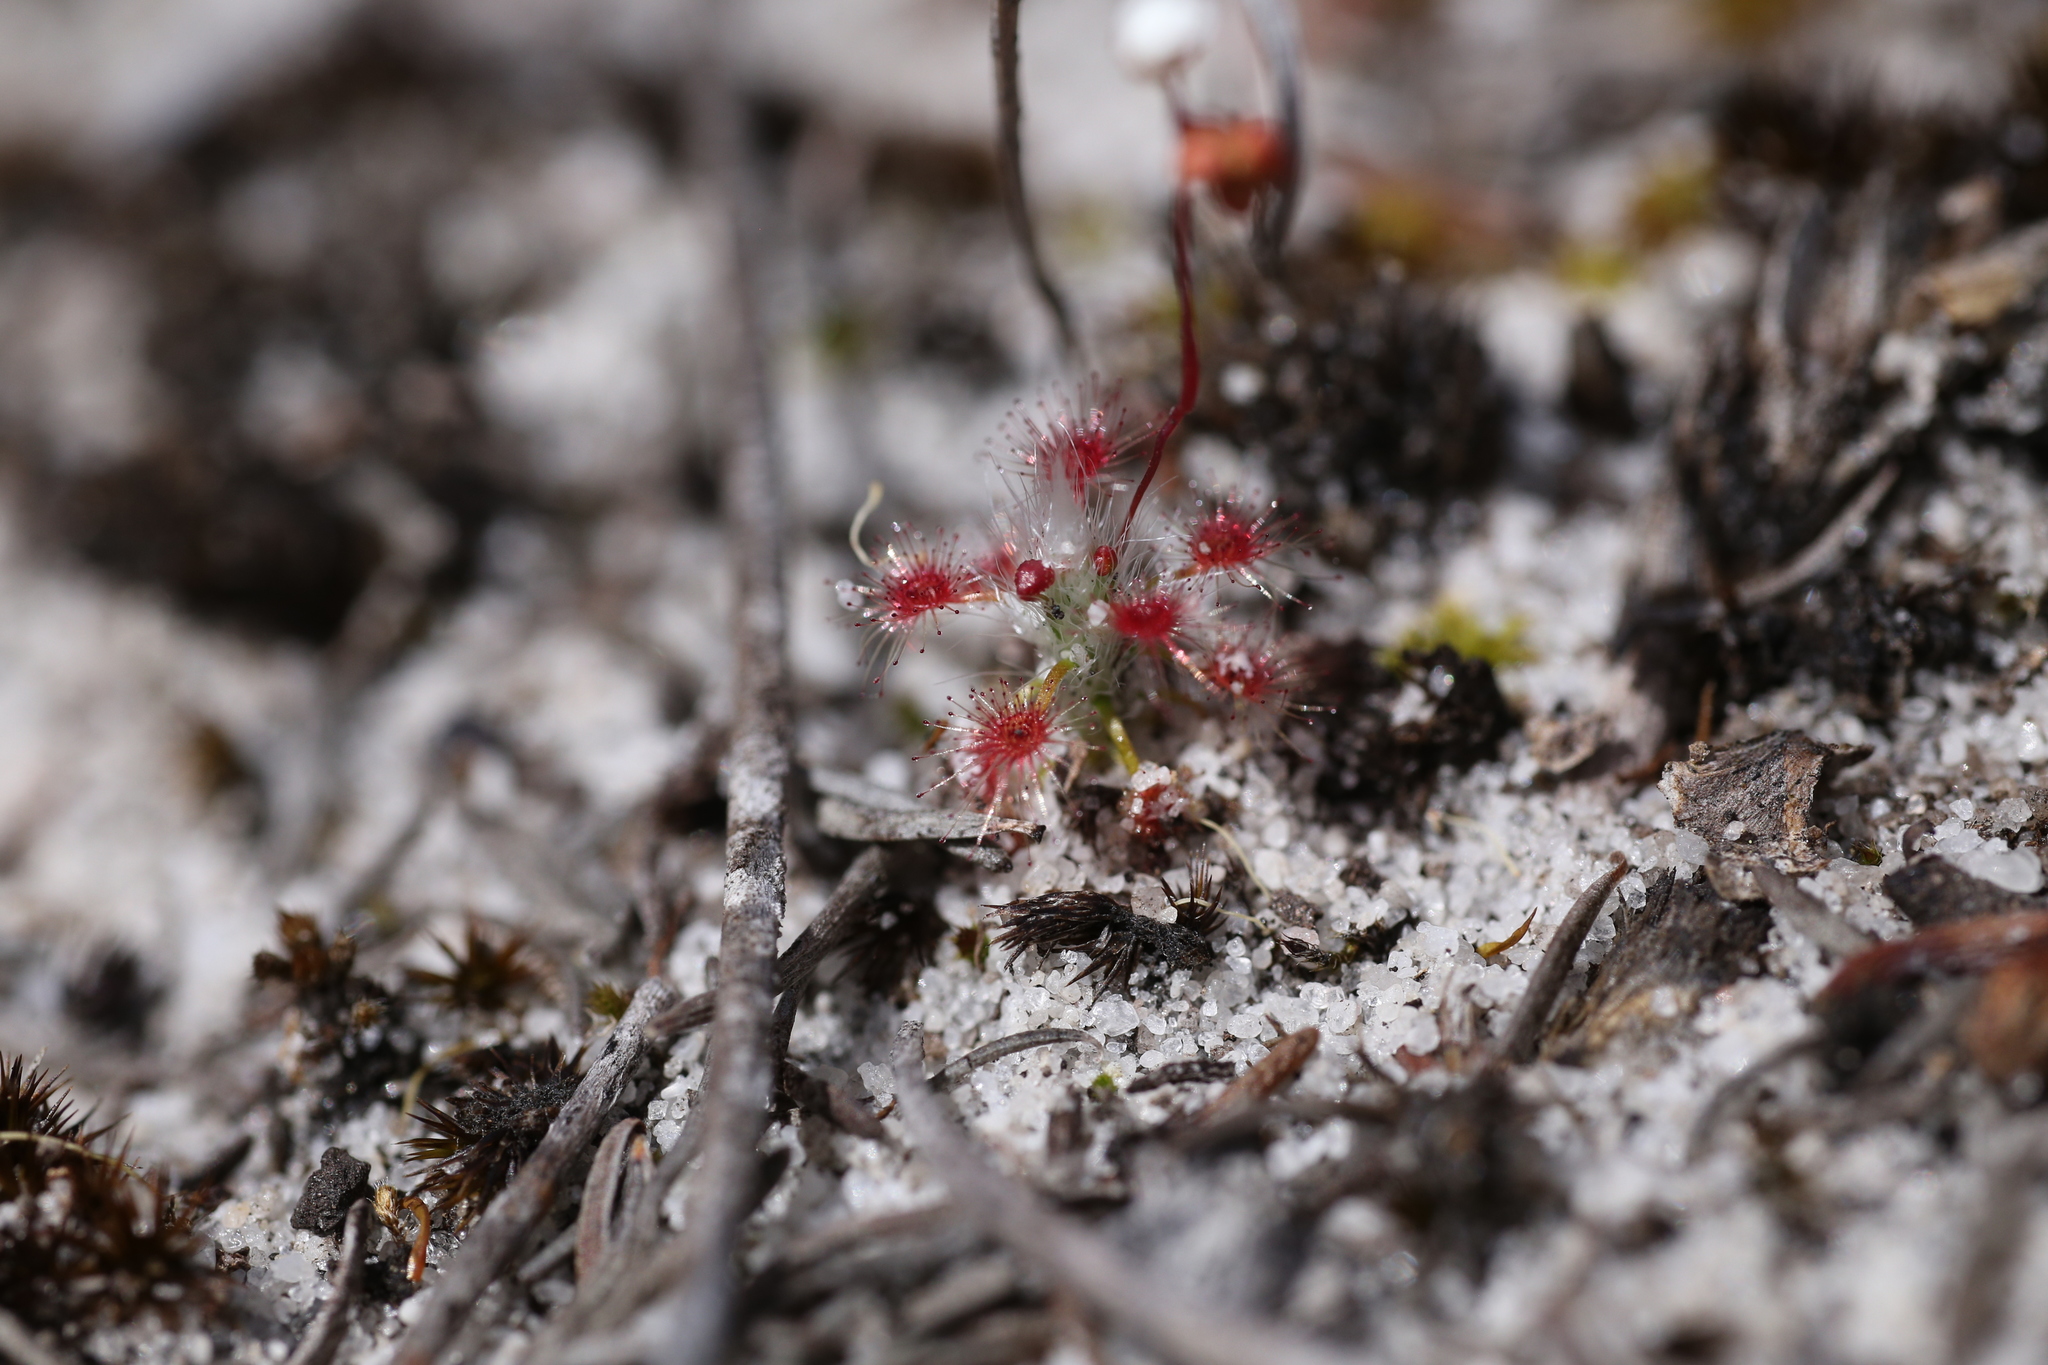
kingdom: Plantae
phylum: Tracheophyta
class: Magnoliopsida
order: Caryophyllales
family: Droseraceae
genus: Drosera
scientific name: Drosera paleacea
